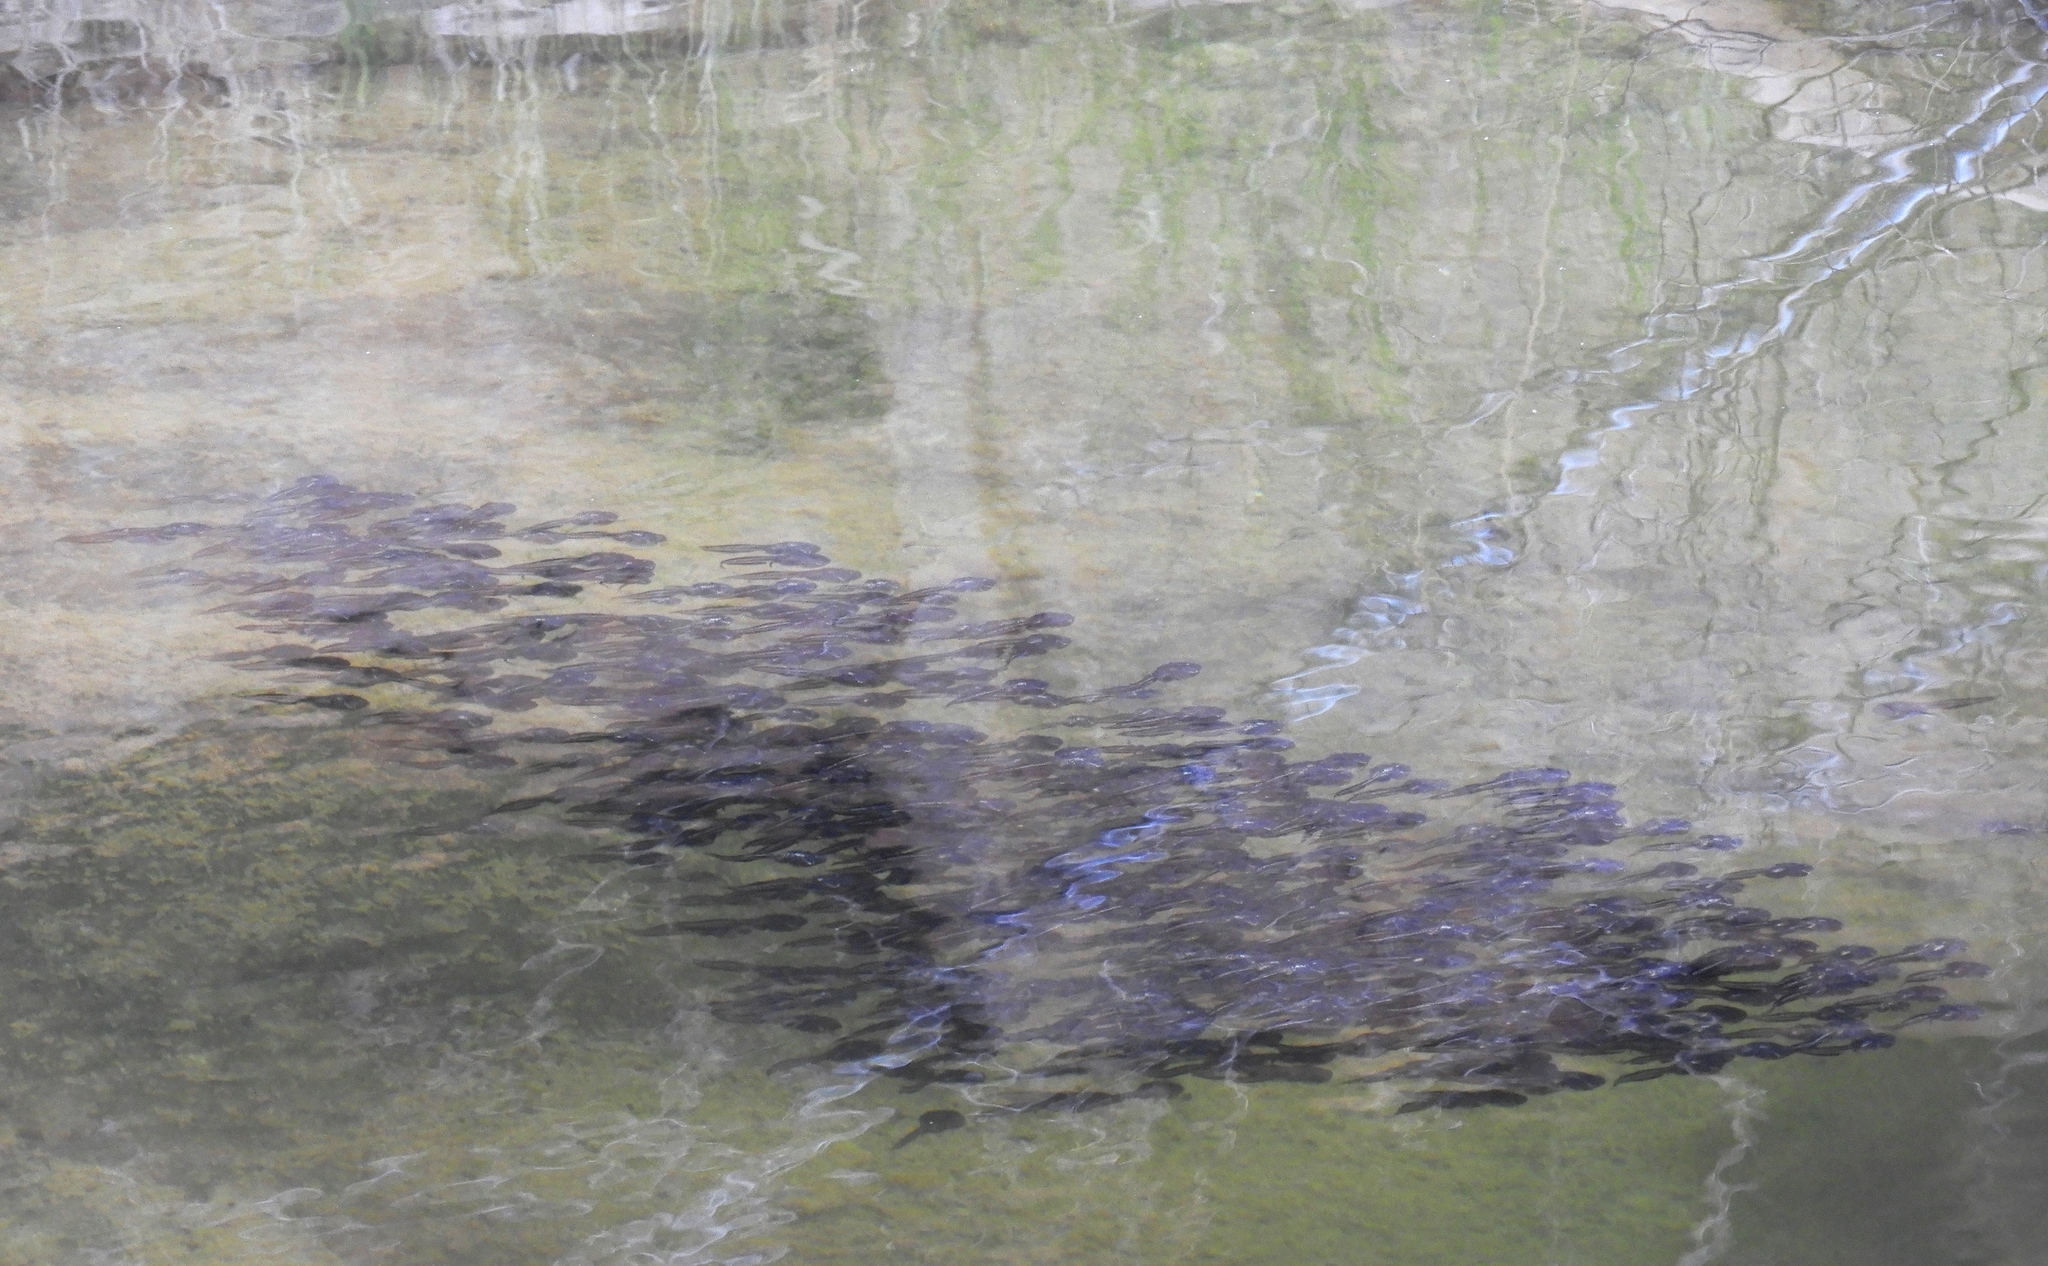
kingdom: Animalia
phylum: Chordata
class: Amphibia
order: Anura
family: Microhylidae
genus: Phrynomantis
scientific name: Phrynomantis annectens
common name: Marbled rubber frog
